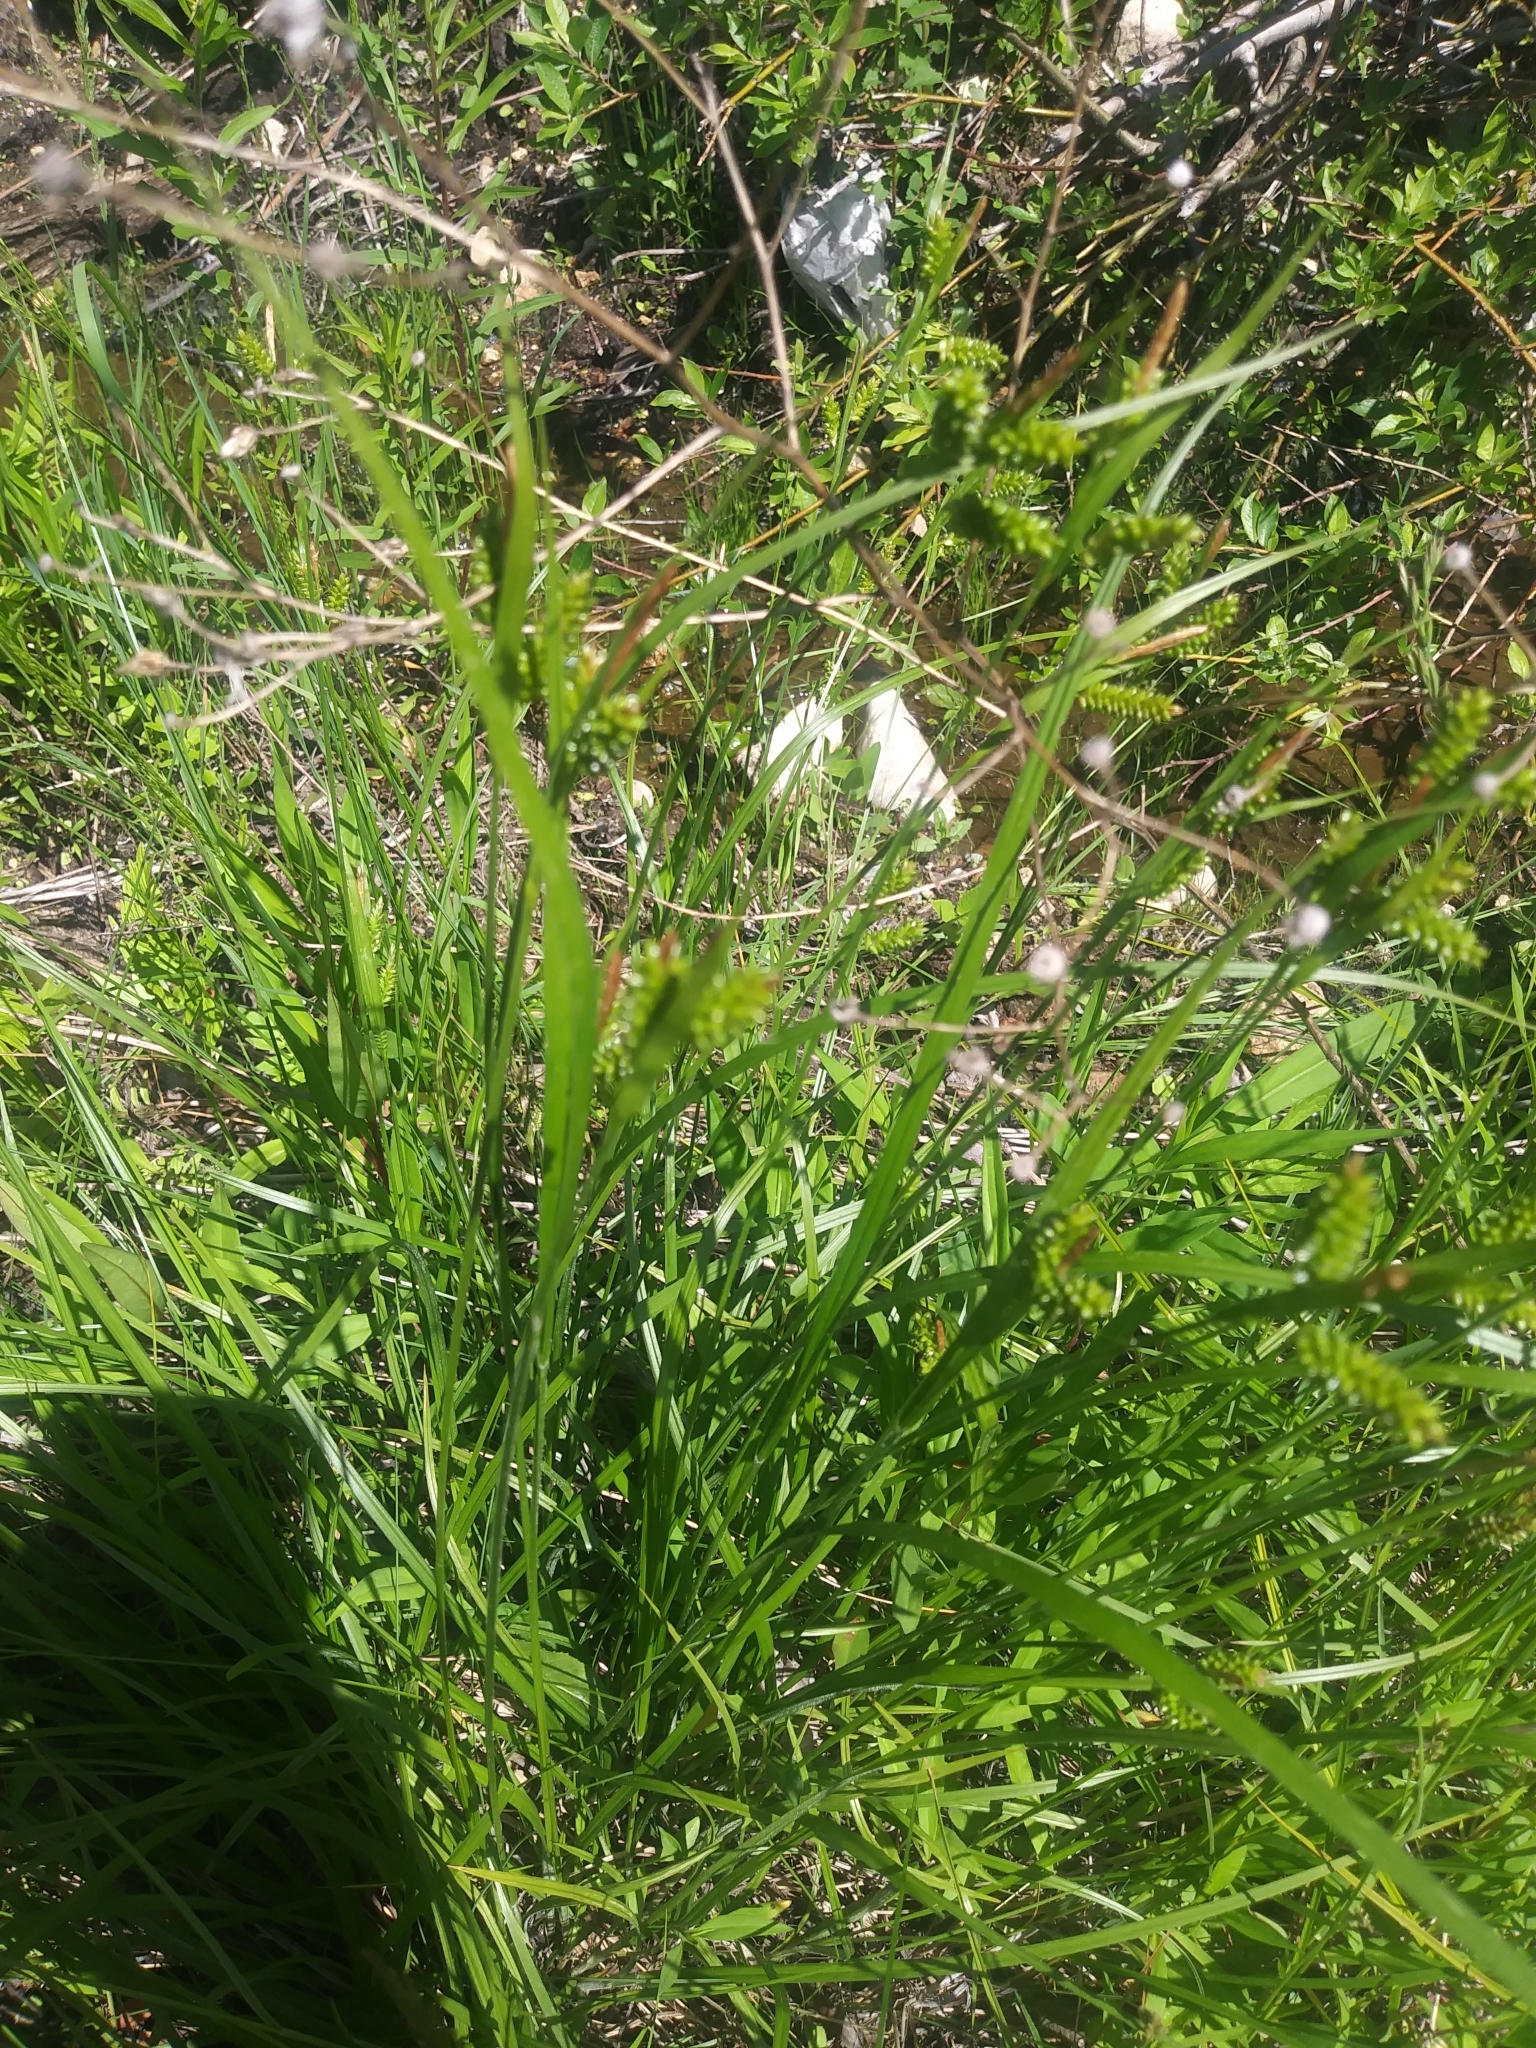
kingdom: Plantae
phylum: Tracheophyta
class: Liliopsida
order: Poales
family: Cyperaceae
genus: Carex
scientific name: Carex pallescens
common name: Pale sedge
